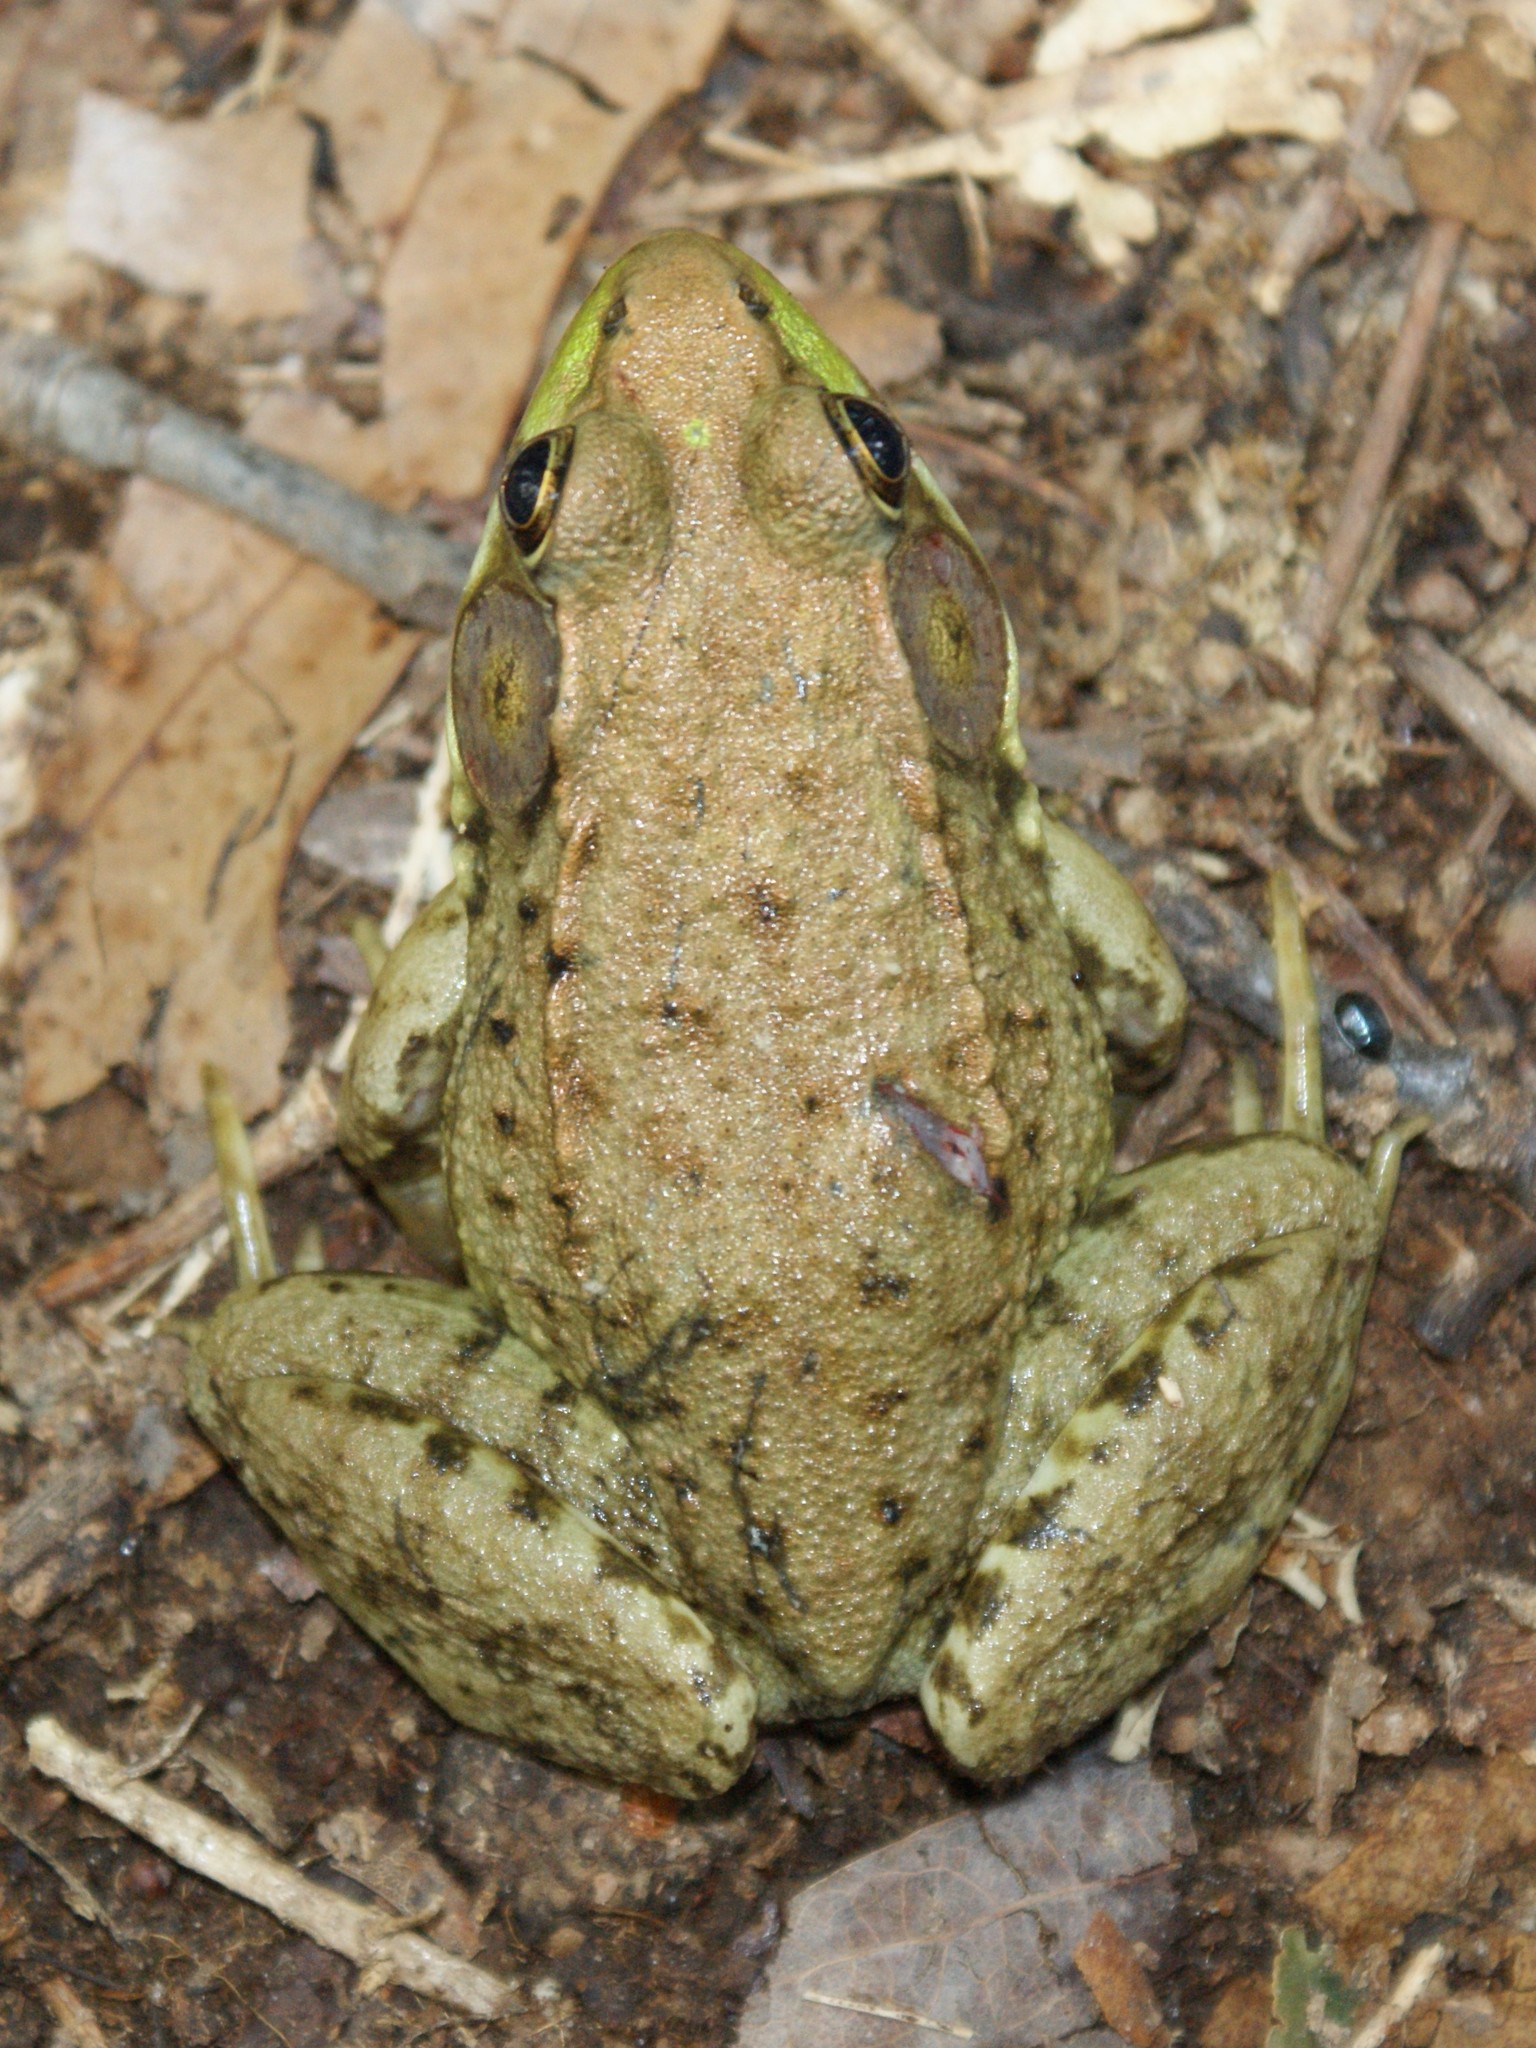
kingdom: Animalia
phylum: Chordata
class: Amphibia
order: Anura
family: Ranidae
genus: Lithobates
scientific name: Lithobates clamitans
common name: Green frog
